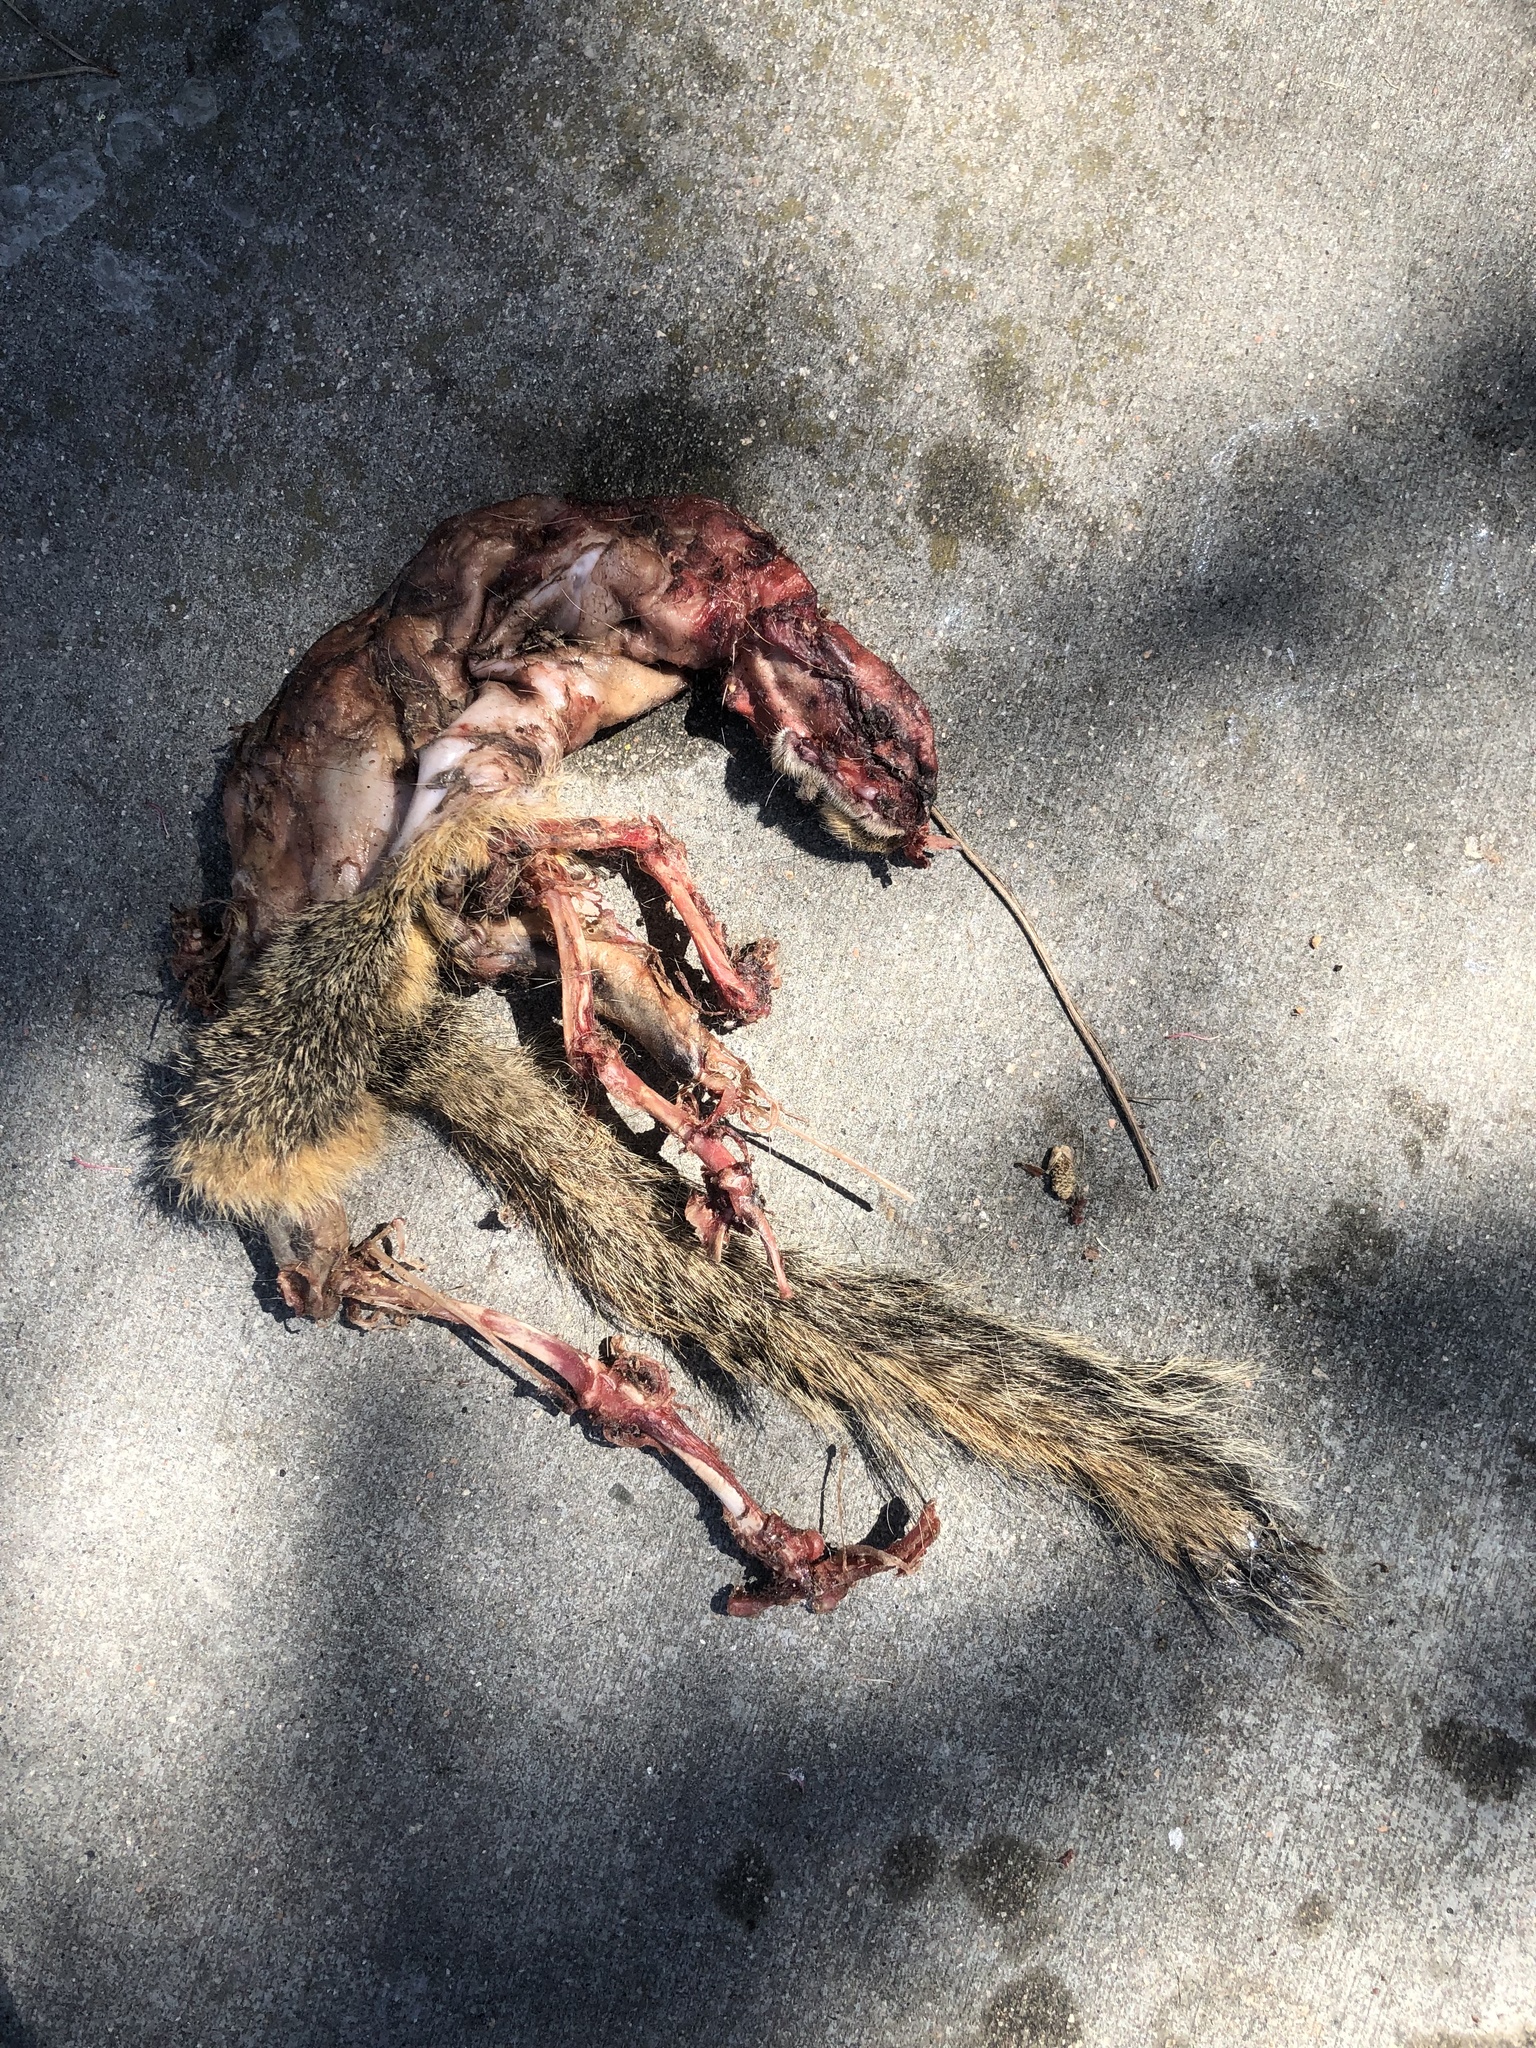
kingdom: Animalia
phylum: Chordata
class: Mammalia
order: Rodentia
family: Sciuridae
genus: Sciurus
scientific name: Sciurus niger
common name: Fox squirrel
